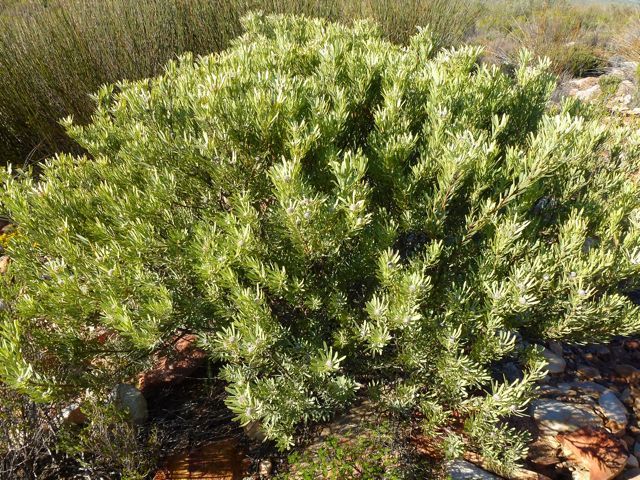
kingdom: Plantae
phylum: Tracheophyta
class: Magnoliopsida
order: Proteales
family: Proteaceae
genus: Leucadendron
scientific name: Leucadendron pubescens
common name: Grey conebush
